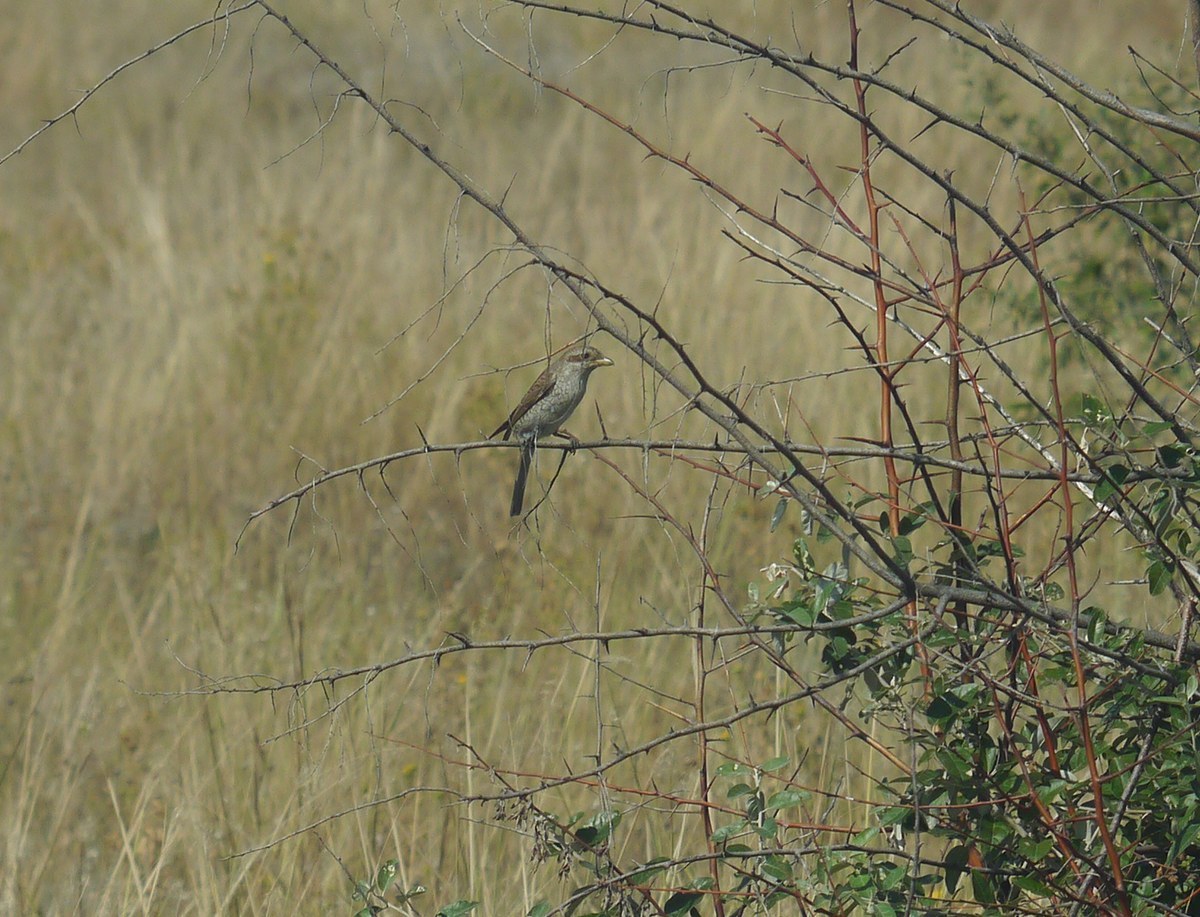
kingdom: Animalia
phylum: Chordata
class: Aves
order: Passeriformes
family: Laniidae
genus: Lanius
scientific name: Lanius collurio
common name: Red-backed shrike
